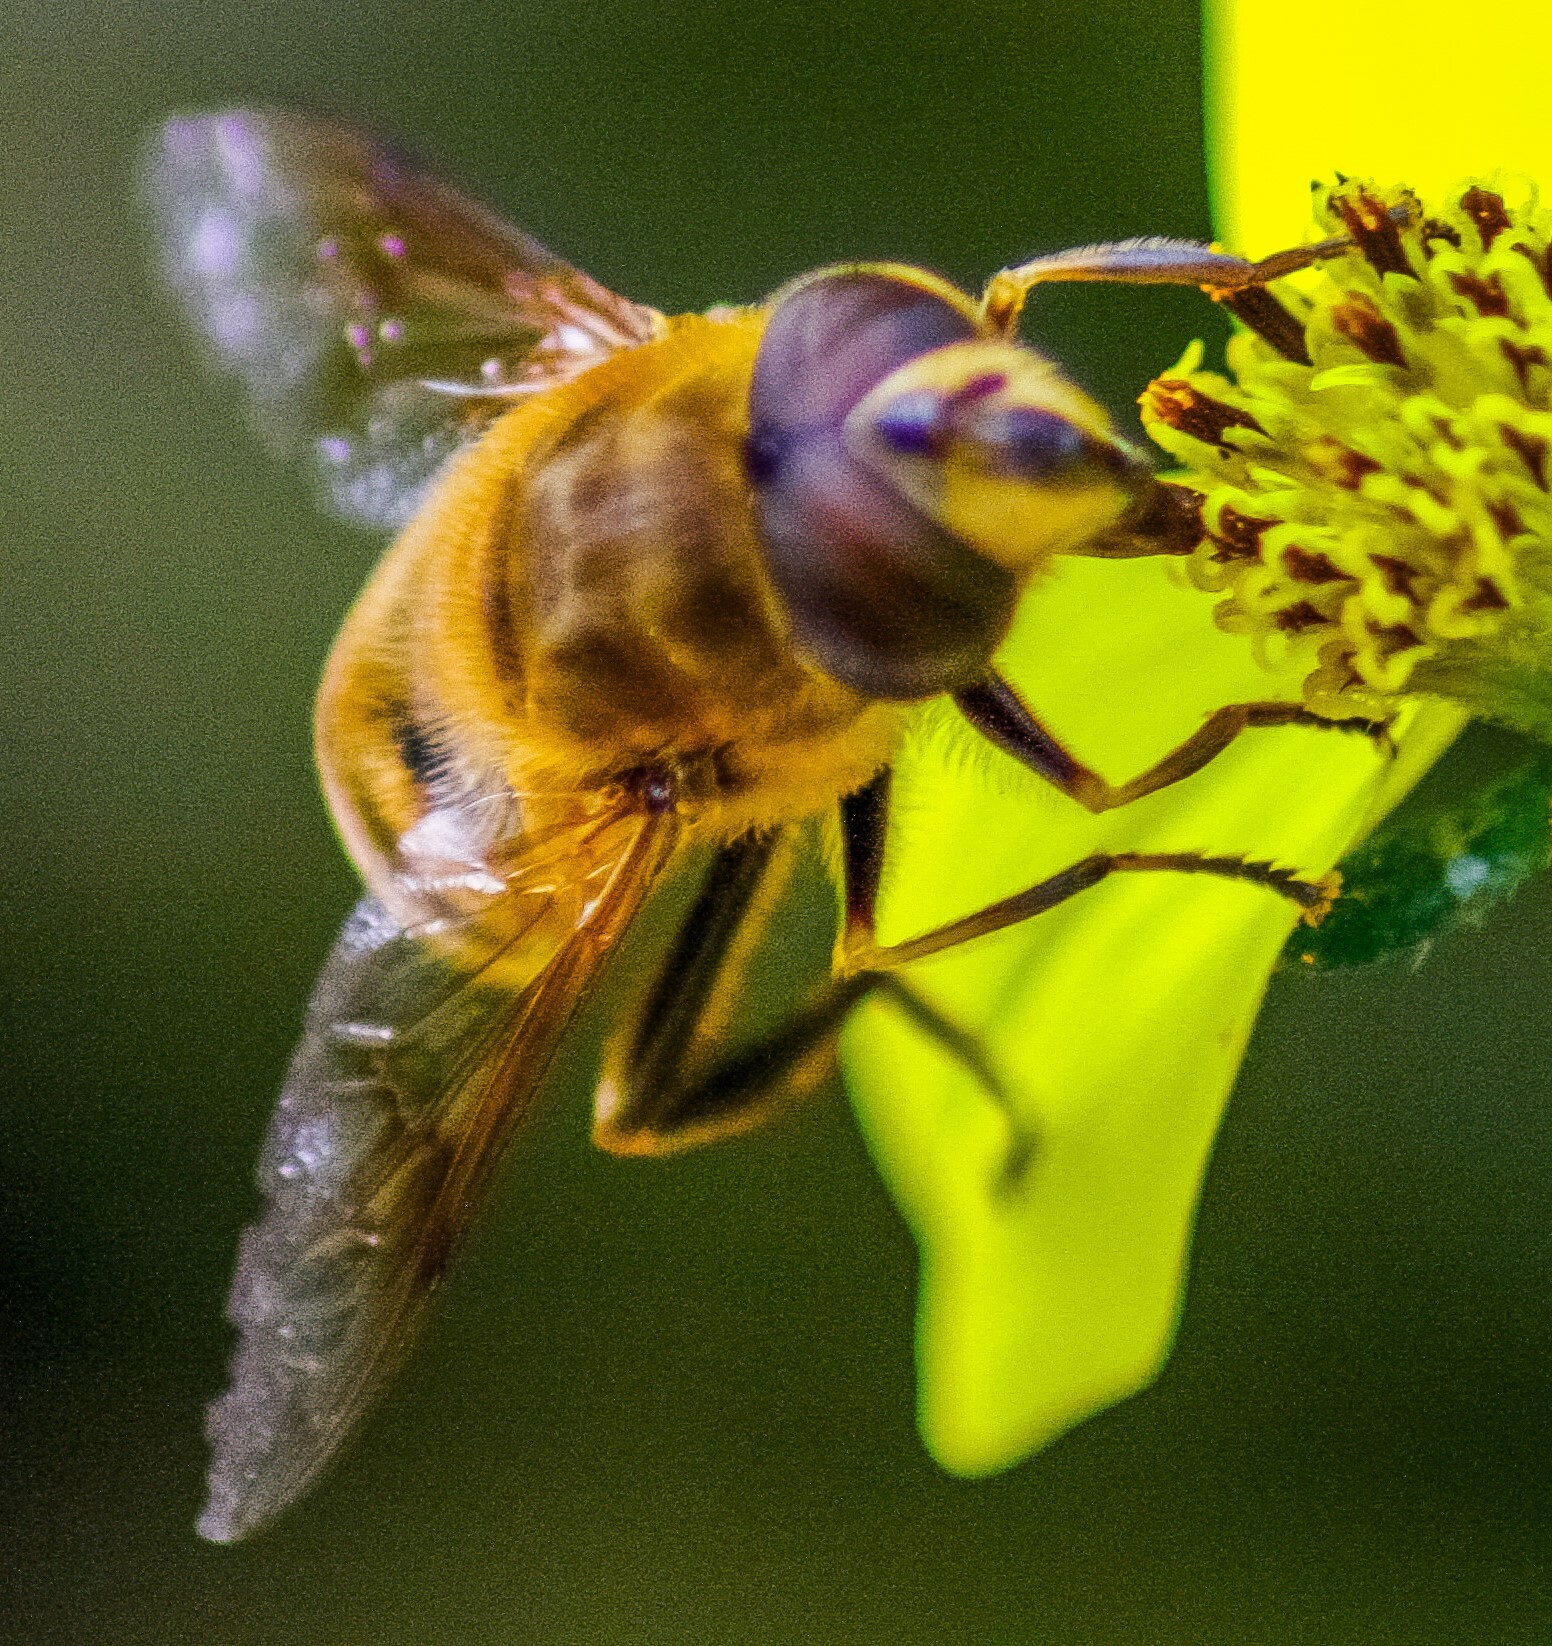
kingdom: Animalia
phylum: Arthropoda
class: Insecta
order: Diptera
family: Syrphidae
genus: Eristalis
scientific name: Eristalis tenax
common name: Drone fly
